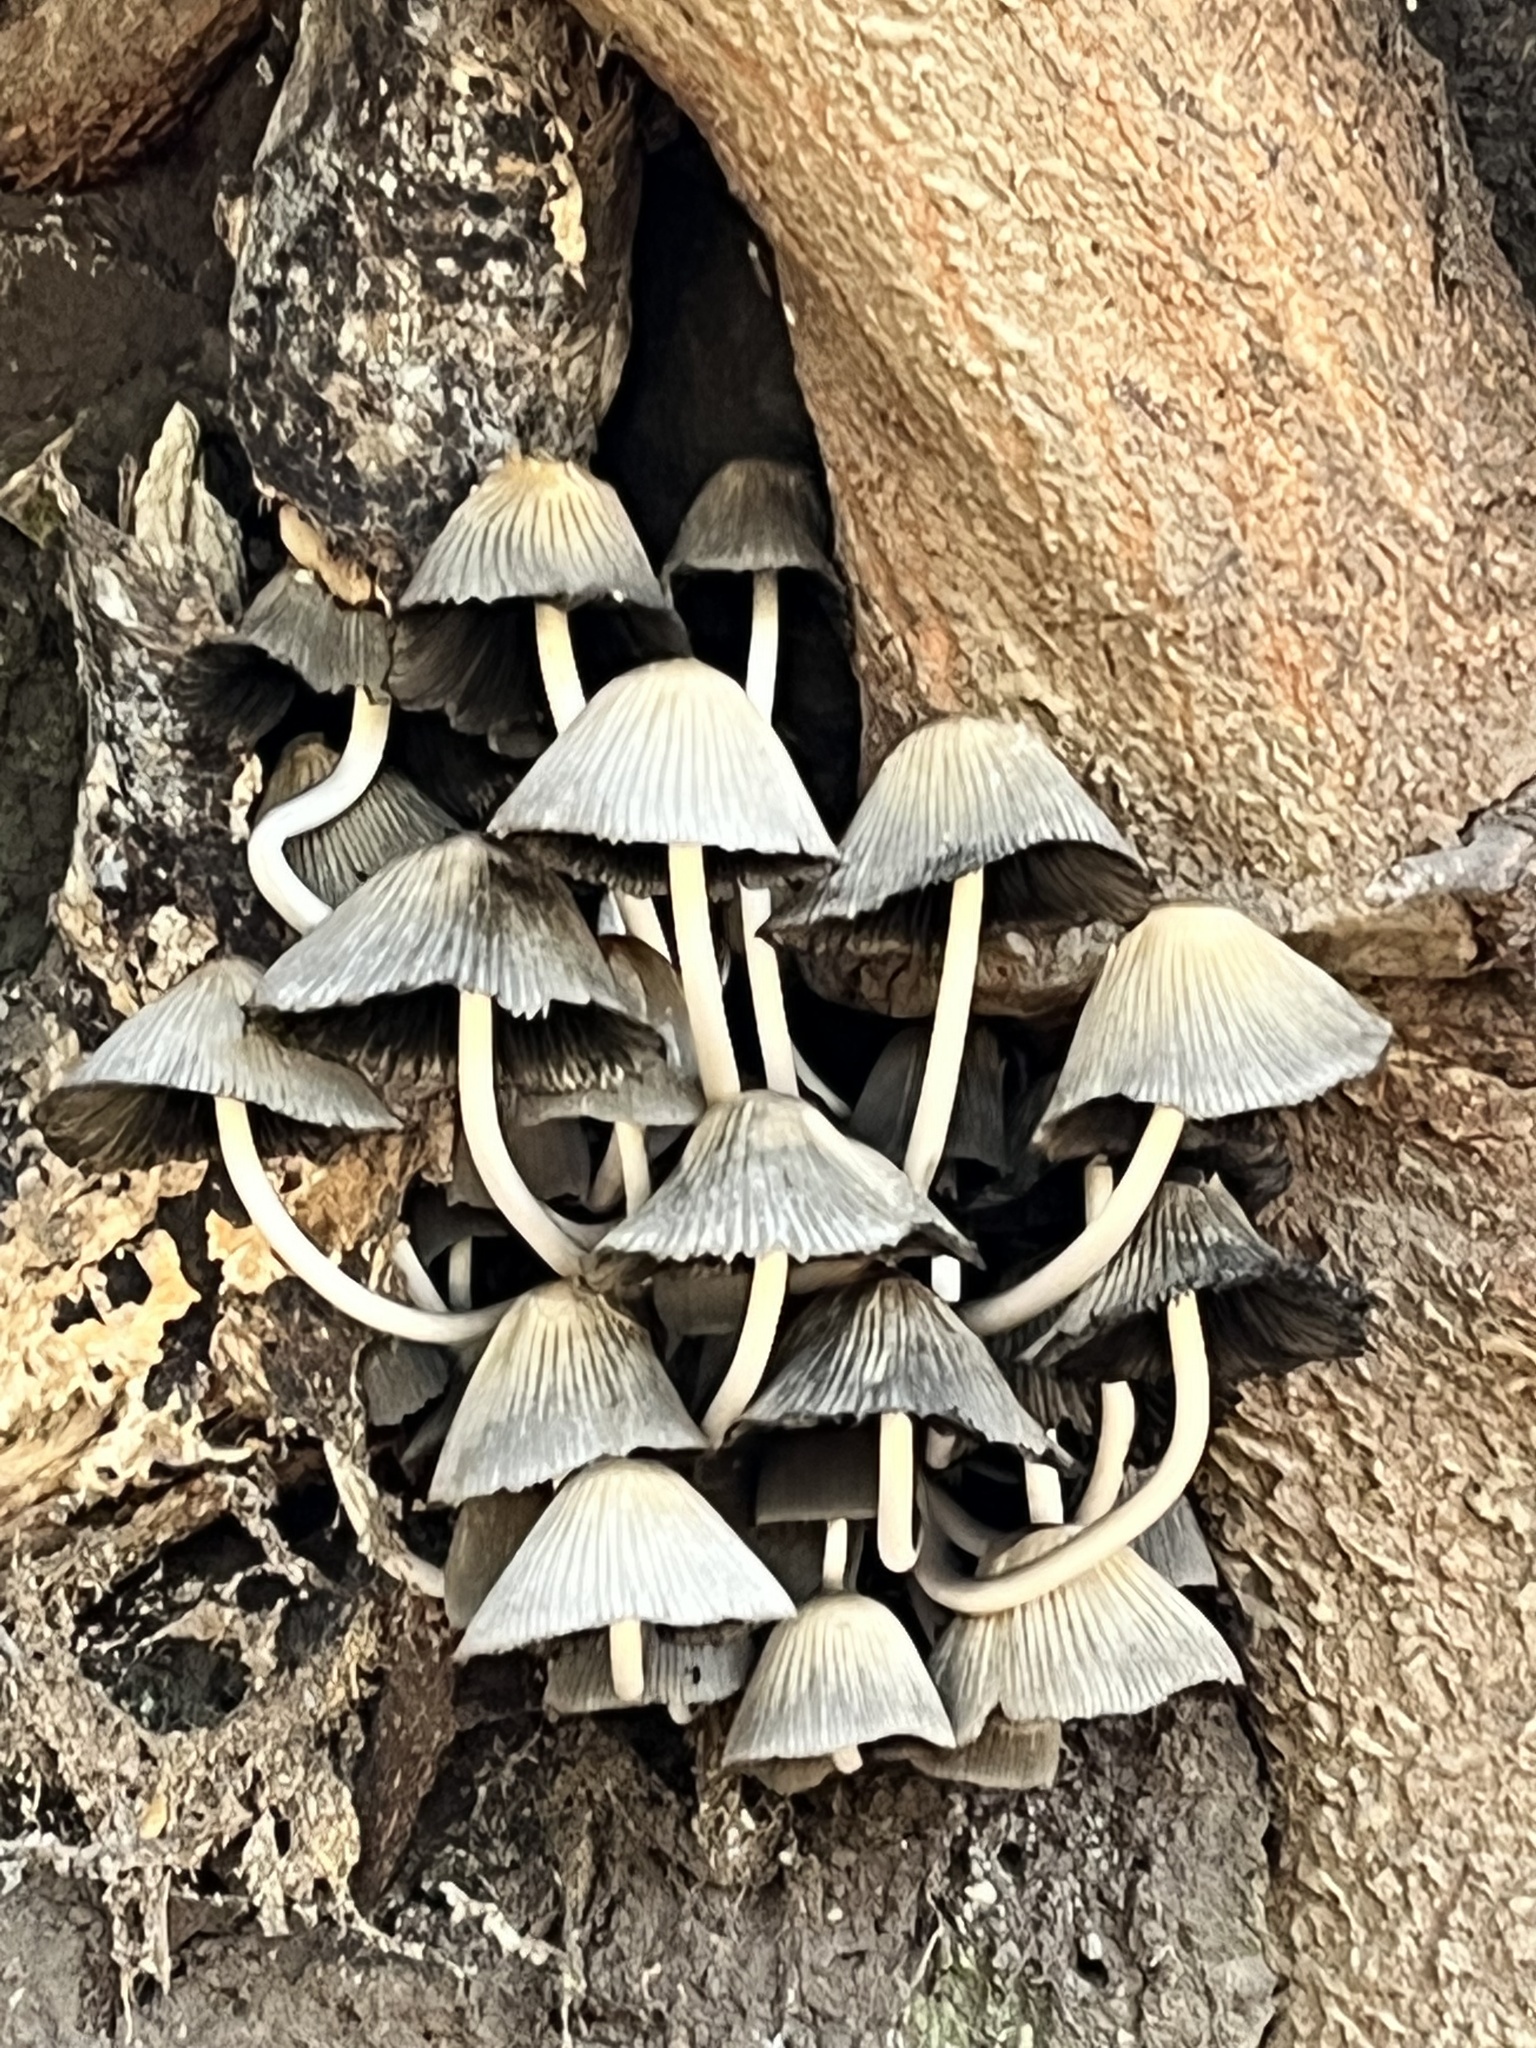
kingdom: Fungi
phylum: Basidiomycota
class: Agaricomycetes
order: Agaricales
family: Psathyrellaceae
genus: Coprinellus
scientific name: Coprinellus disseminatus
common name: Fairies' bonnets
